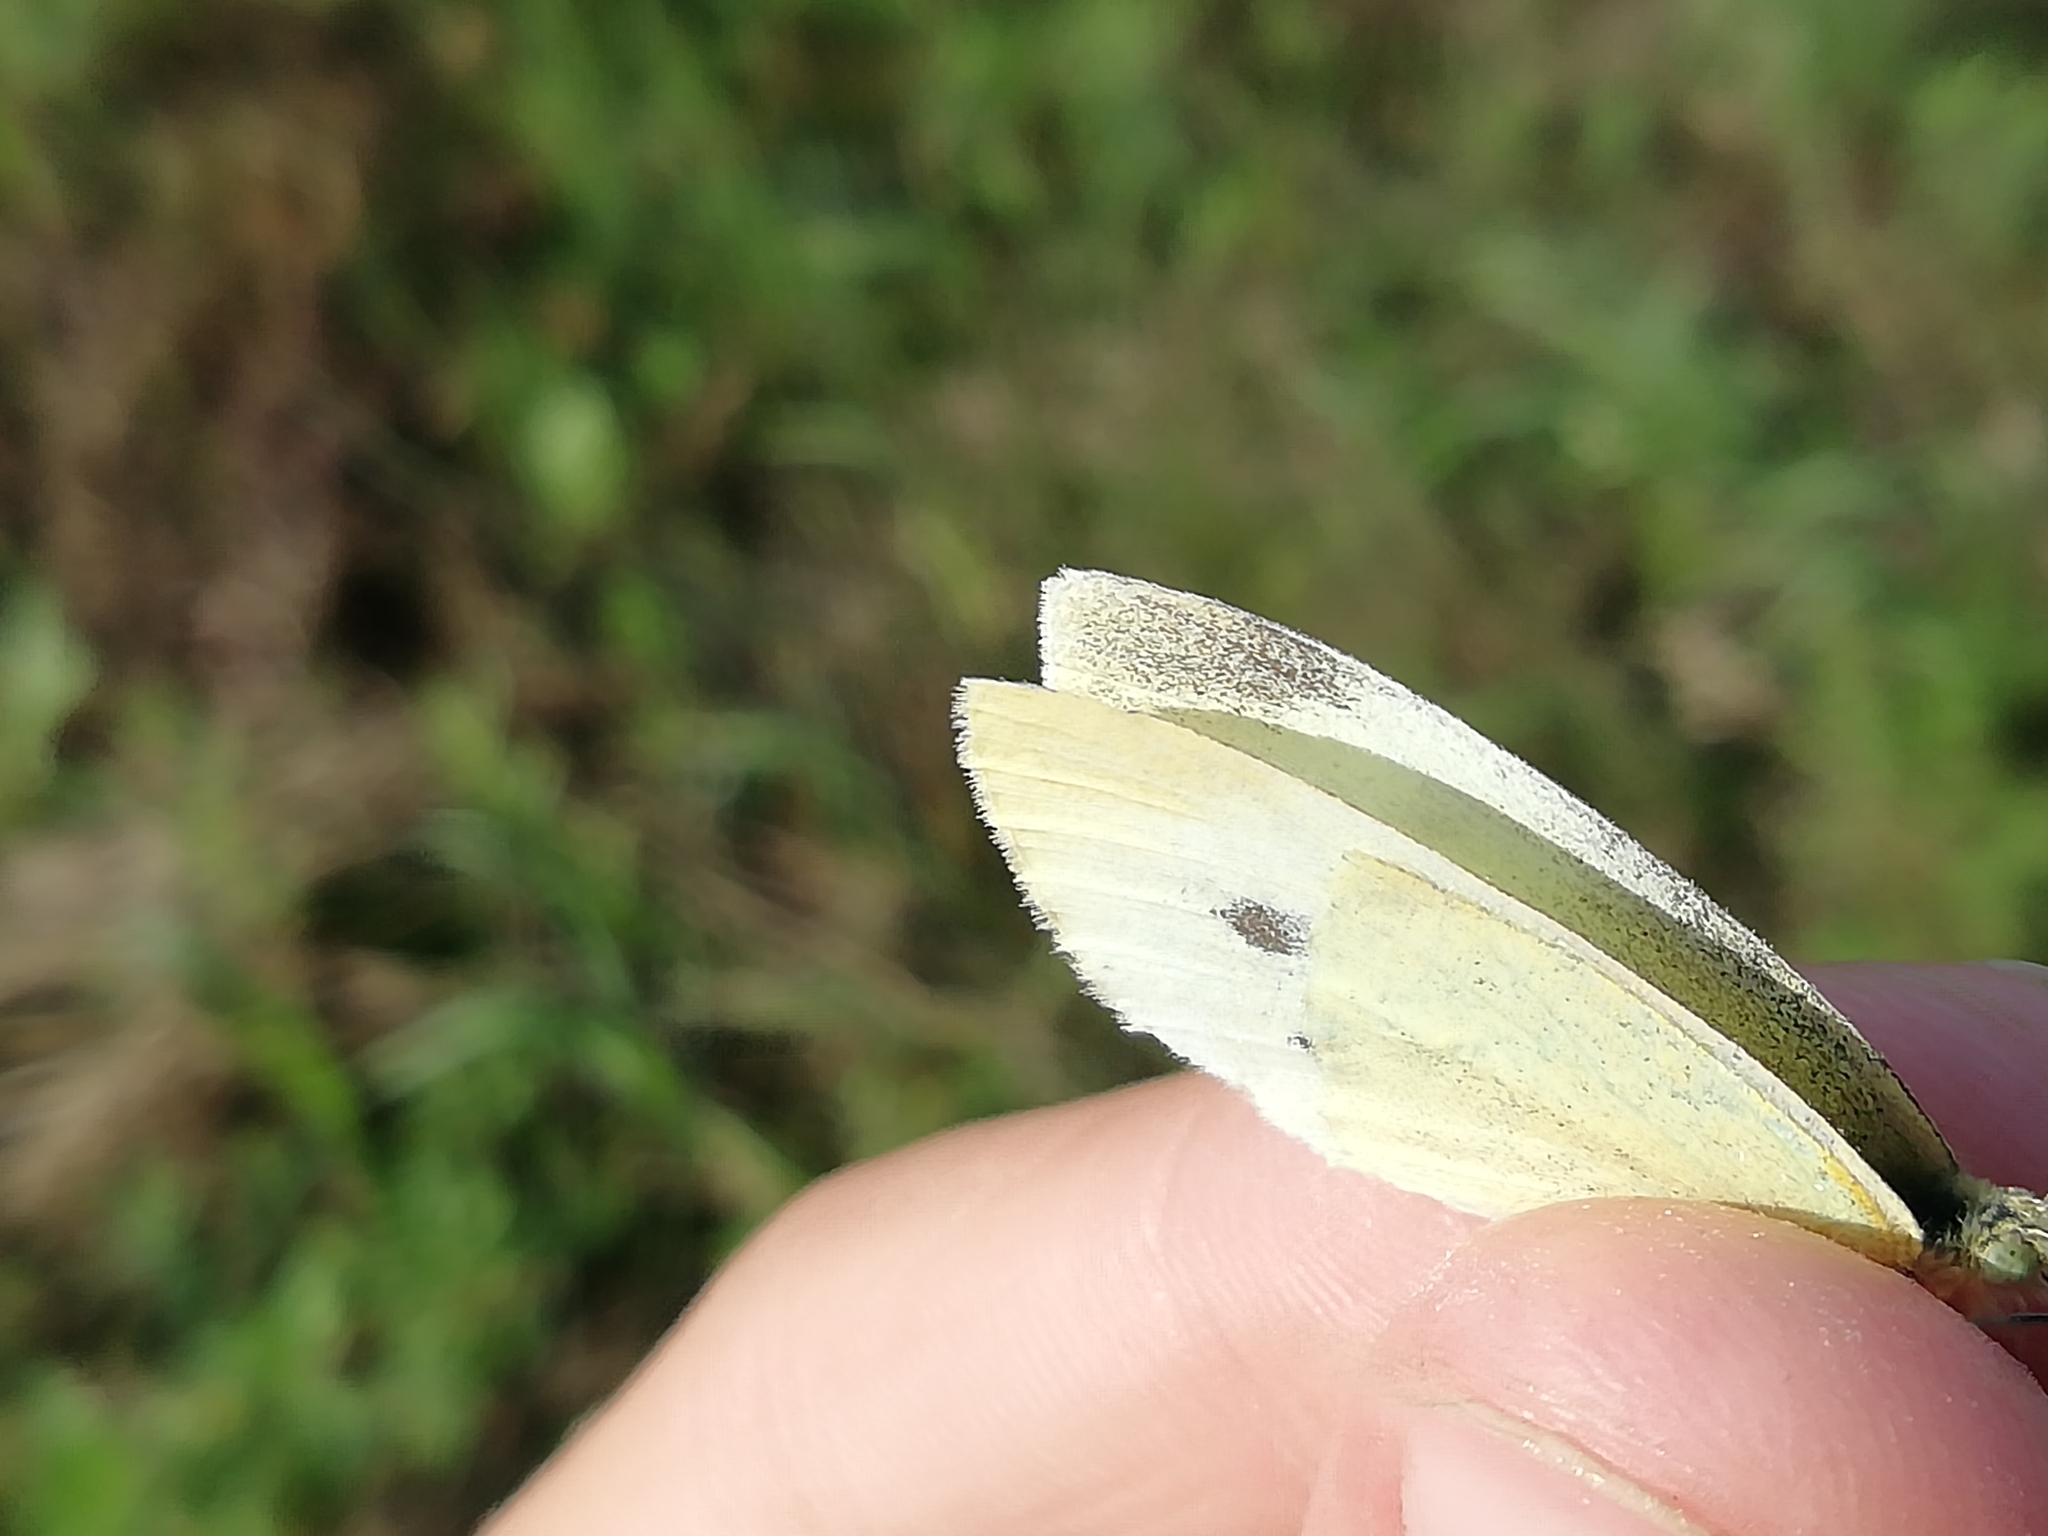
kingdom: Animalia
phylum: Arthropoda
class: Insecta
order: Lepidoptera
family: Pieridae
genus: Pieris
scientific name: Pieris rapae
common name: Small white
